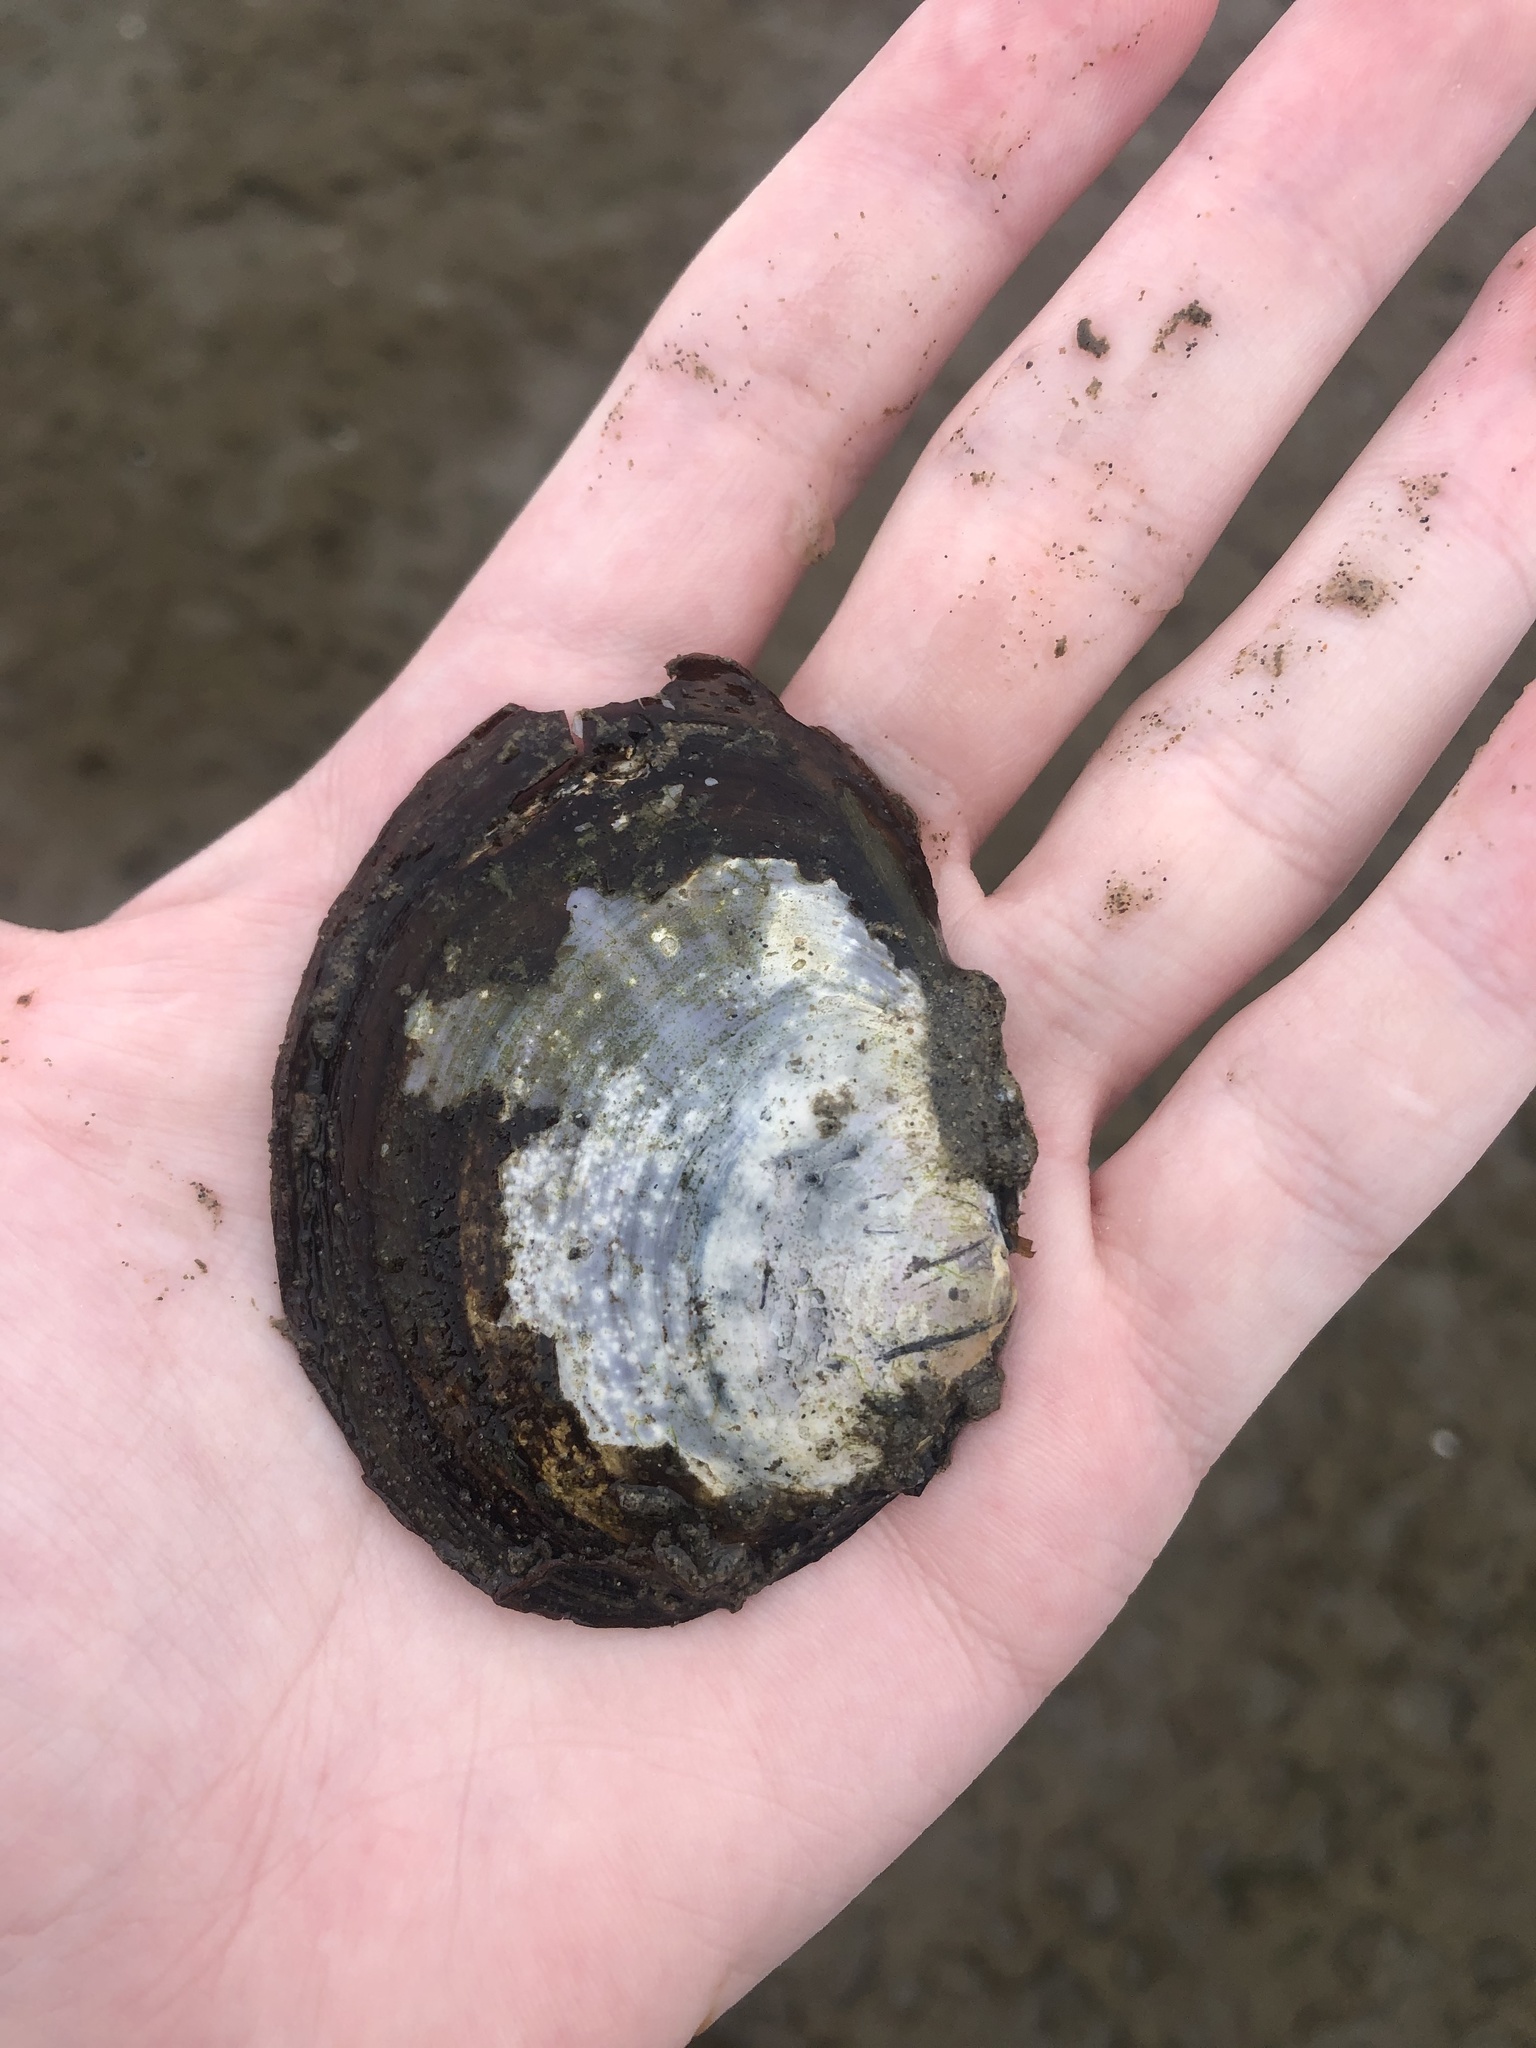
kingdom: Animalia
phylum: Mollusca
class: Bivalvia
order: Cardiida
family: Psammobiidae
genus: Nuttallia
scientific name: Nuttallia obscurata
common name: Purple mahogany-clam
